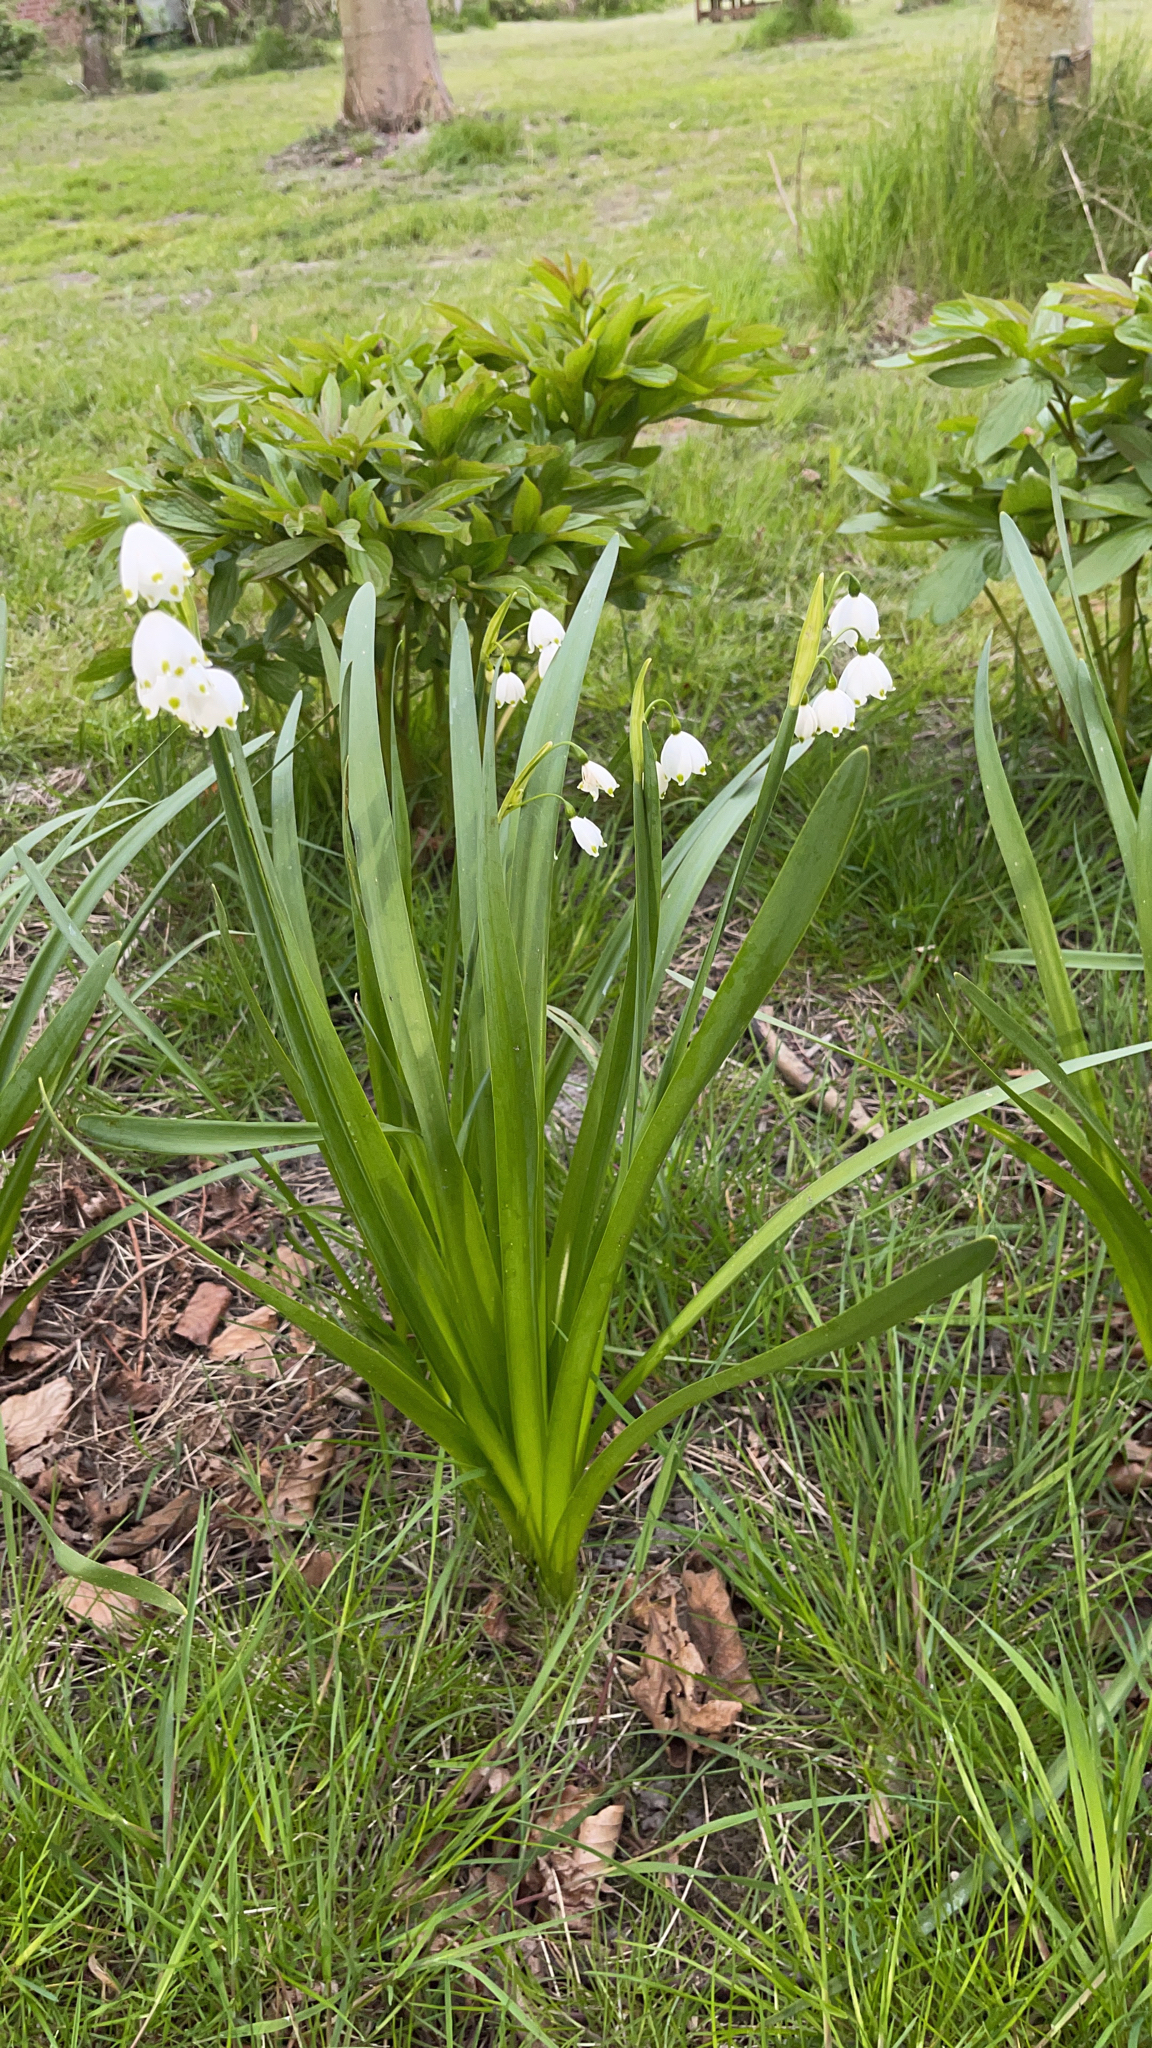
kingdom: Plantae
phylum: Tracheophyta
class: Liliopsida
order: Asparagales
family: Amaryllidaceae
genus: Leucojum
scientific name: Leucojum aestivum
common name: Summer snowflake
